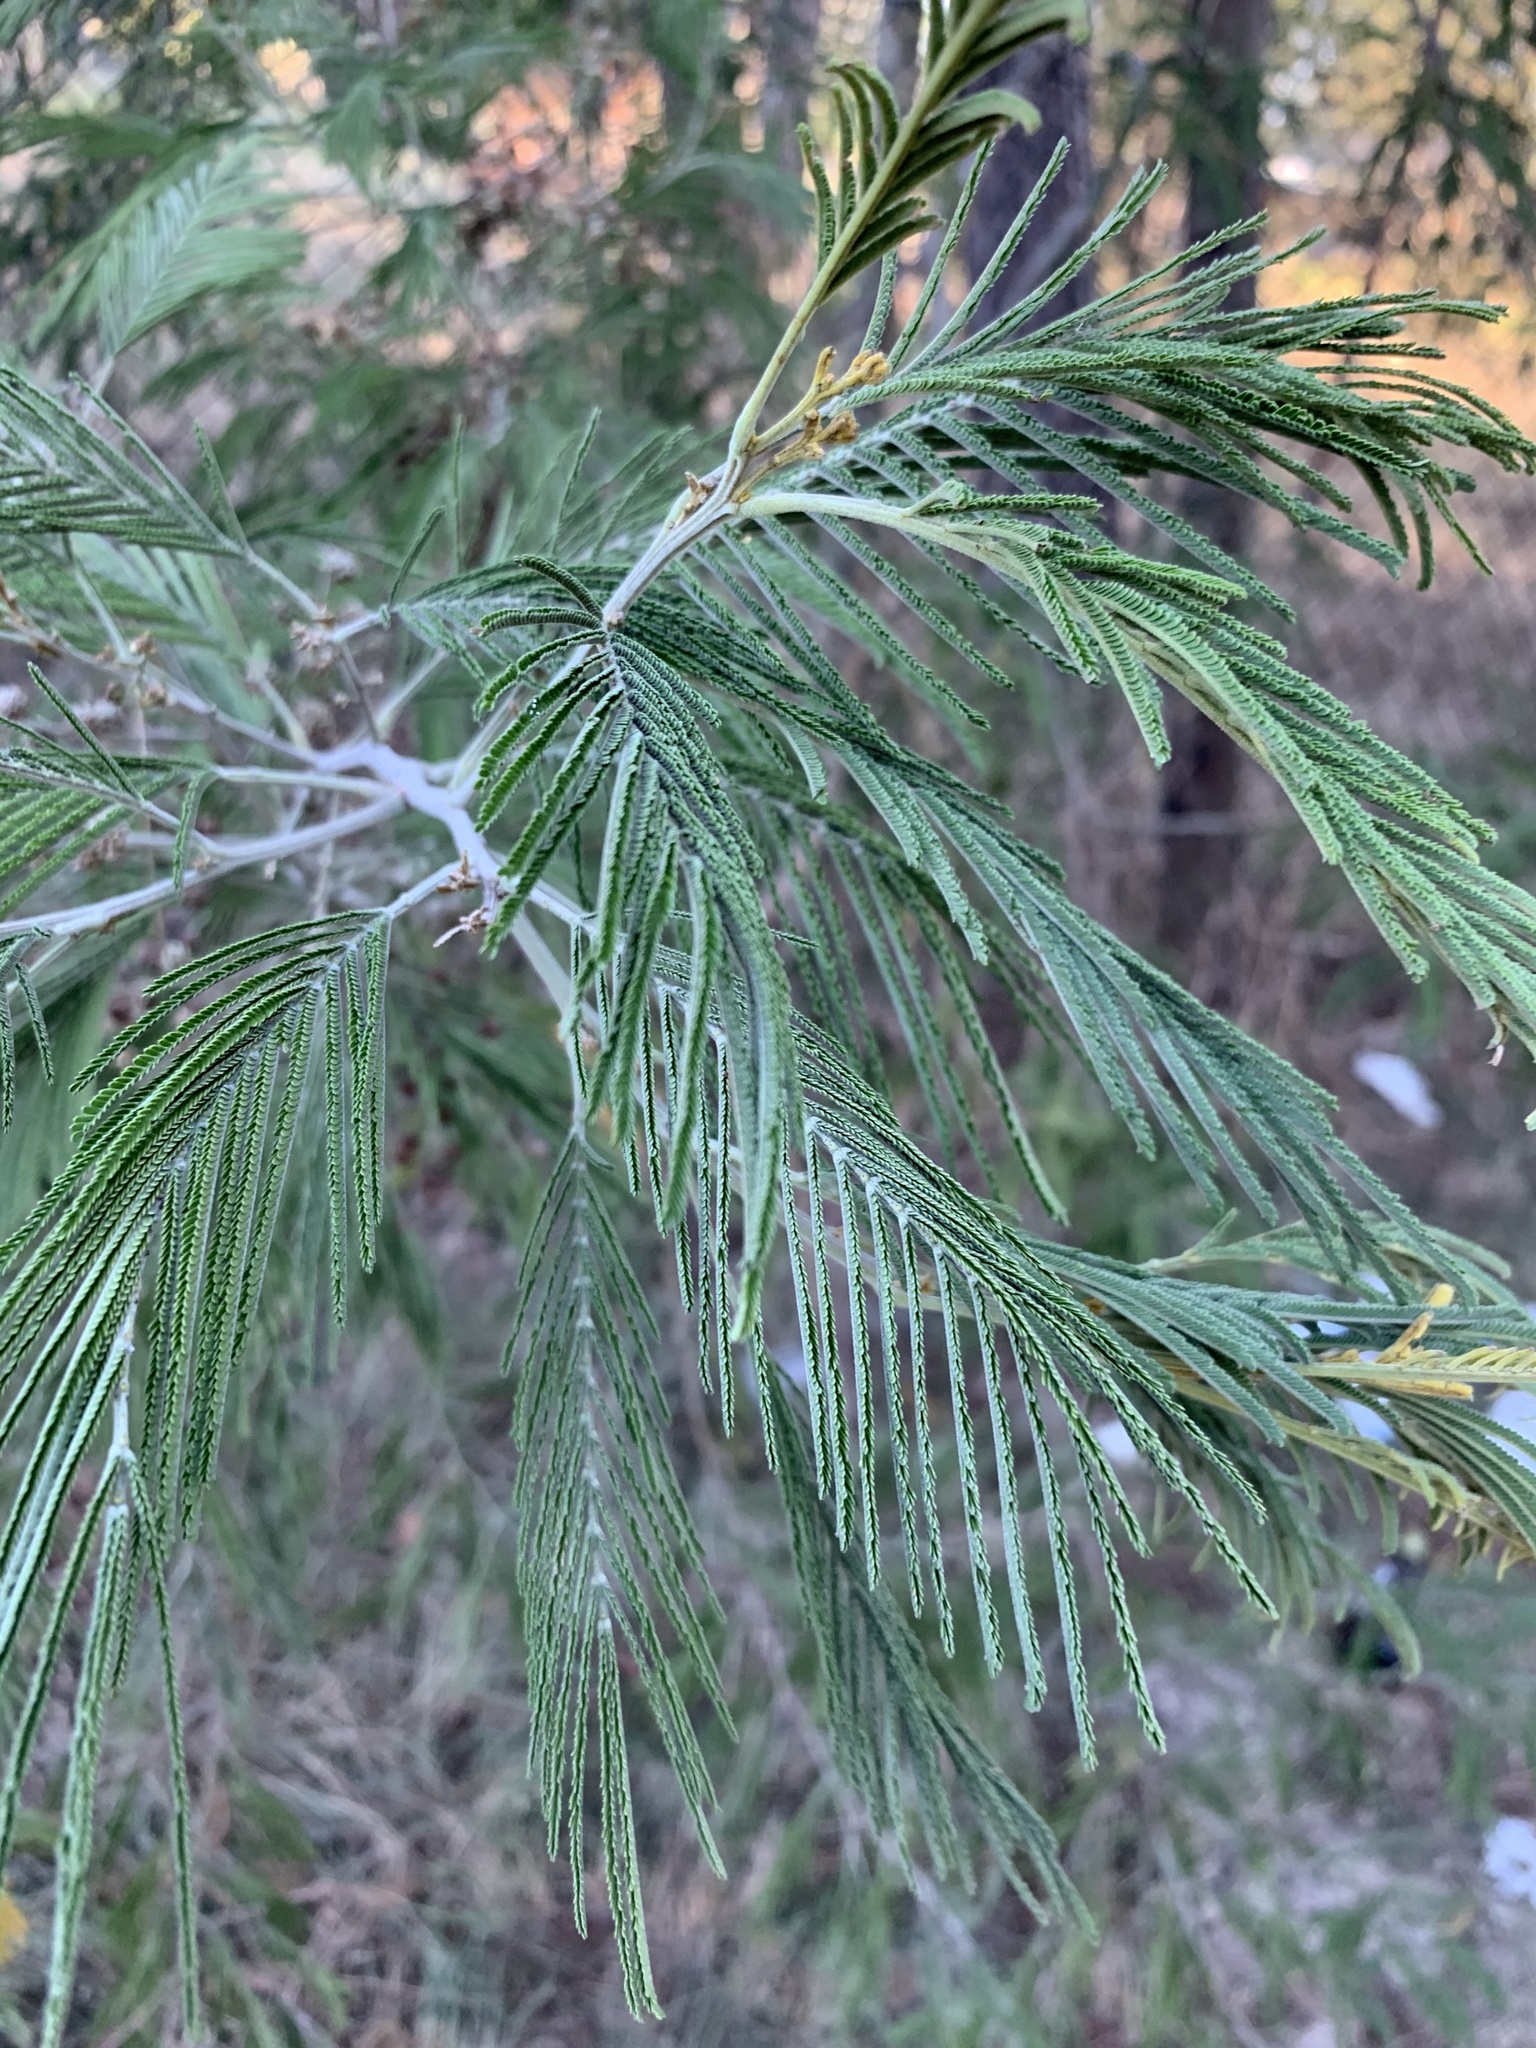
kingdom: Plantae
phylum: Tracheophyta
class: Magnoliopsida
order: Fabales
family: Fabaceae
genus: Acacia
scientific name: Acacia mearnsii
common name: Black wattle
